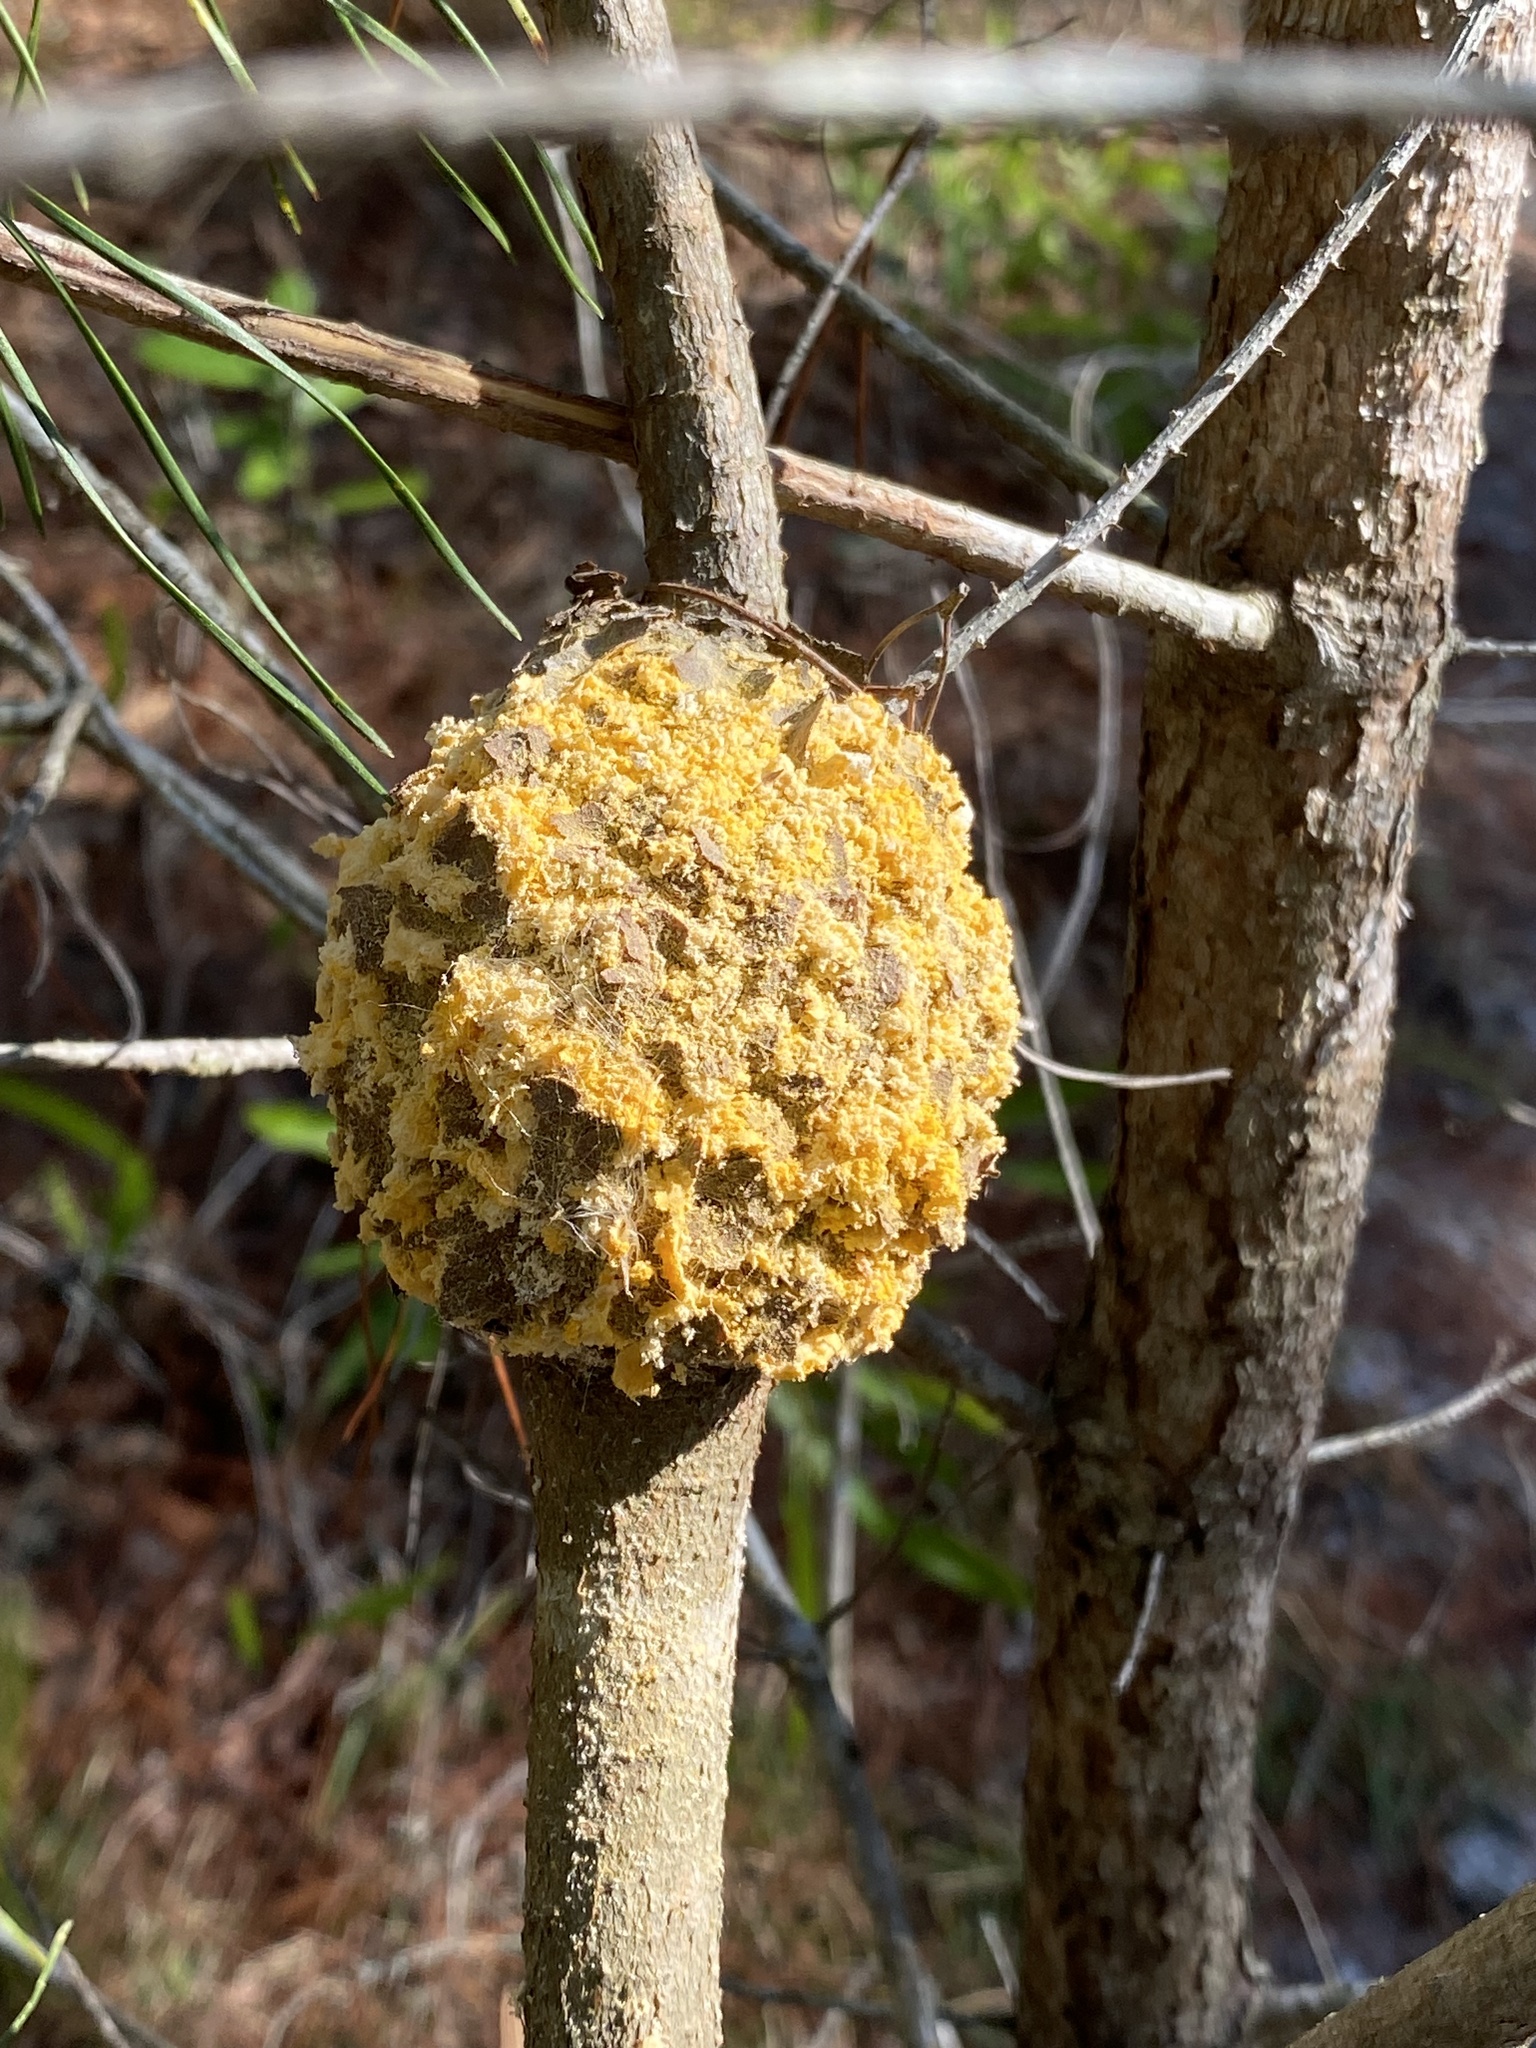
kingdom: Fungi
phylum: Basidiomycota
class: Pucciniomycetes
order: Pucciniales
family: Cronartiaceae
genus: Cronartium
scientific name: Cronartium quercuum
